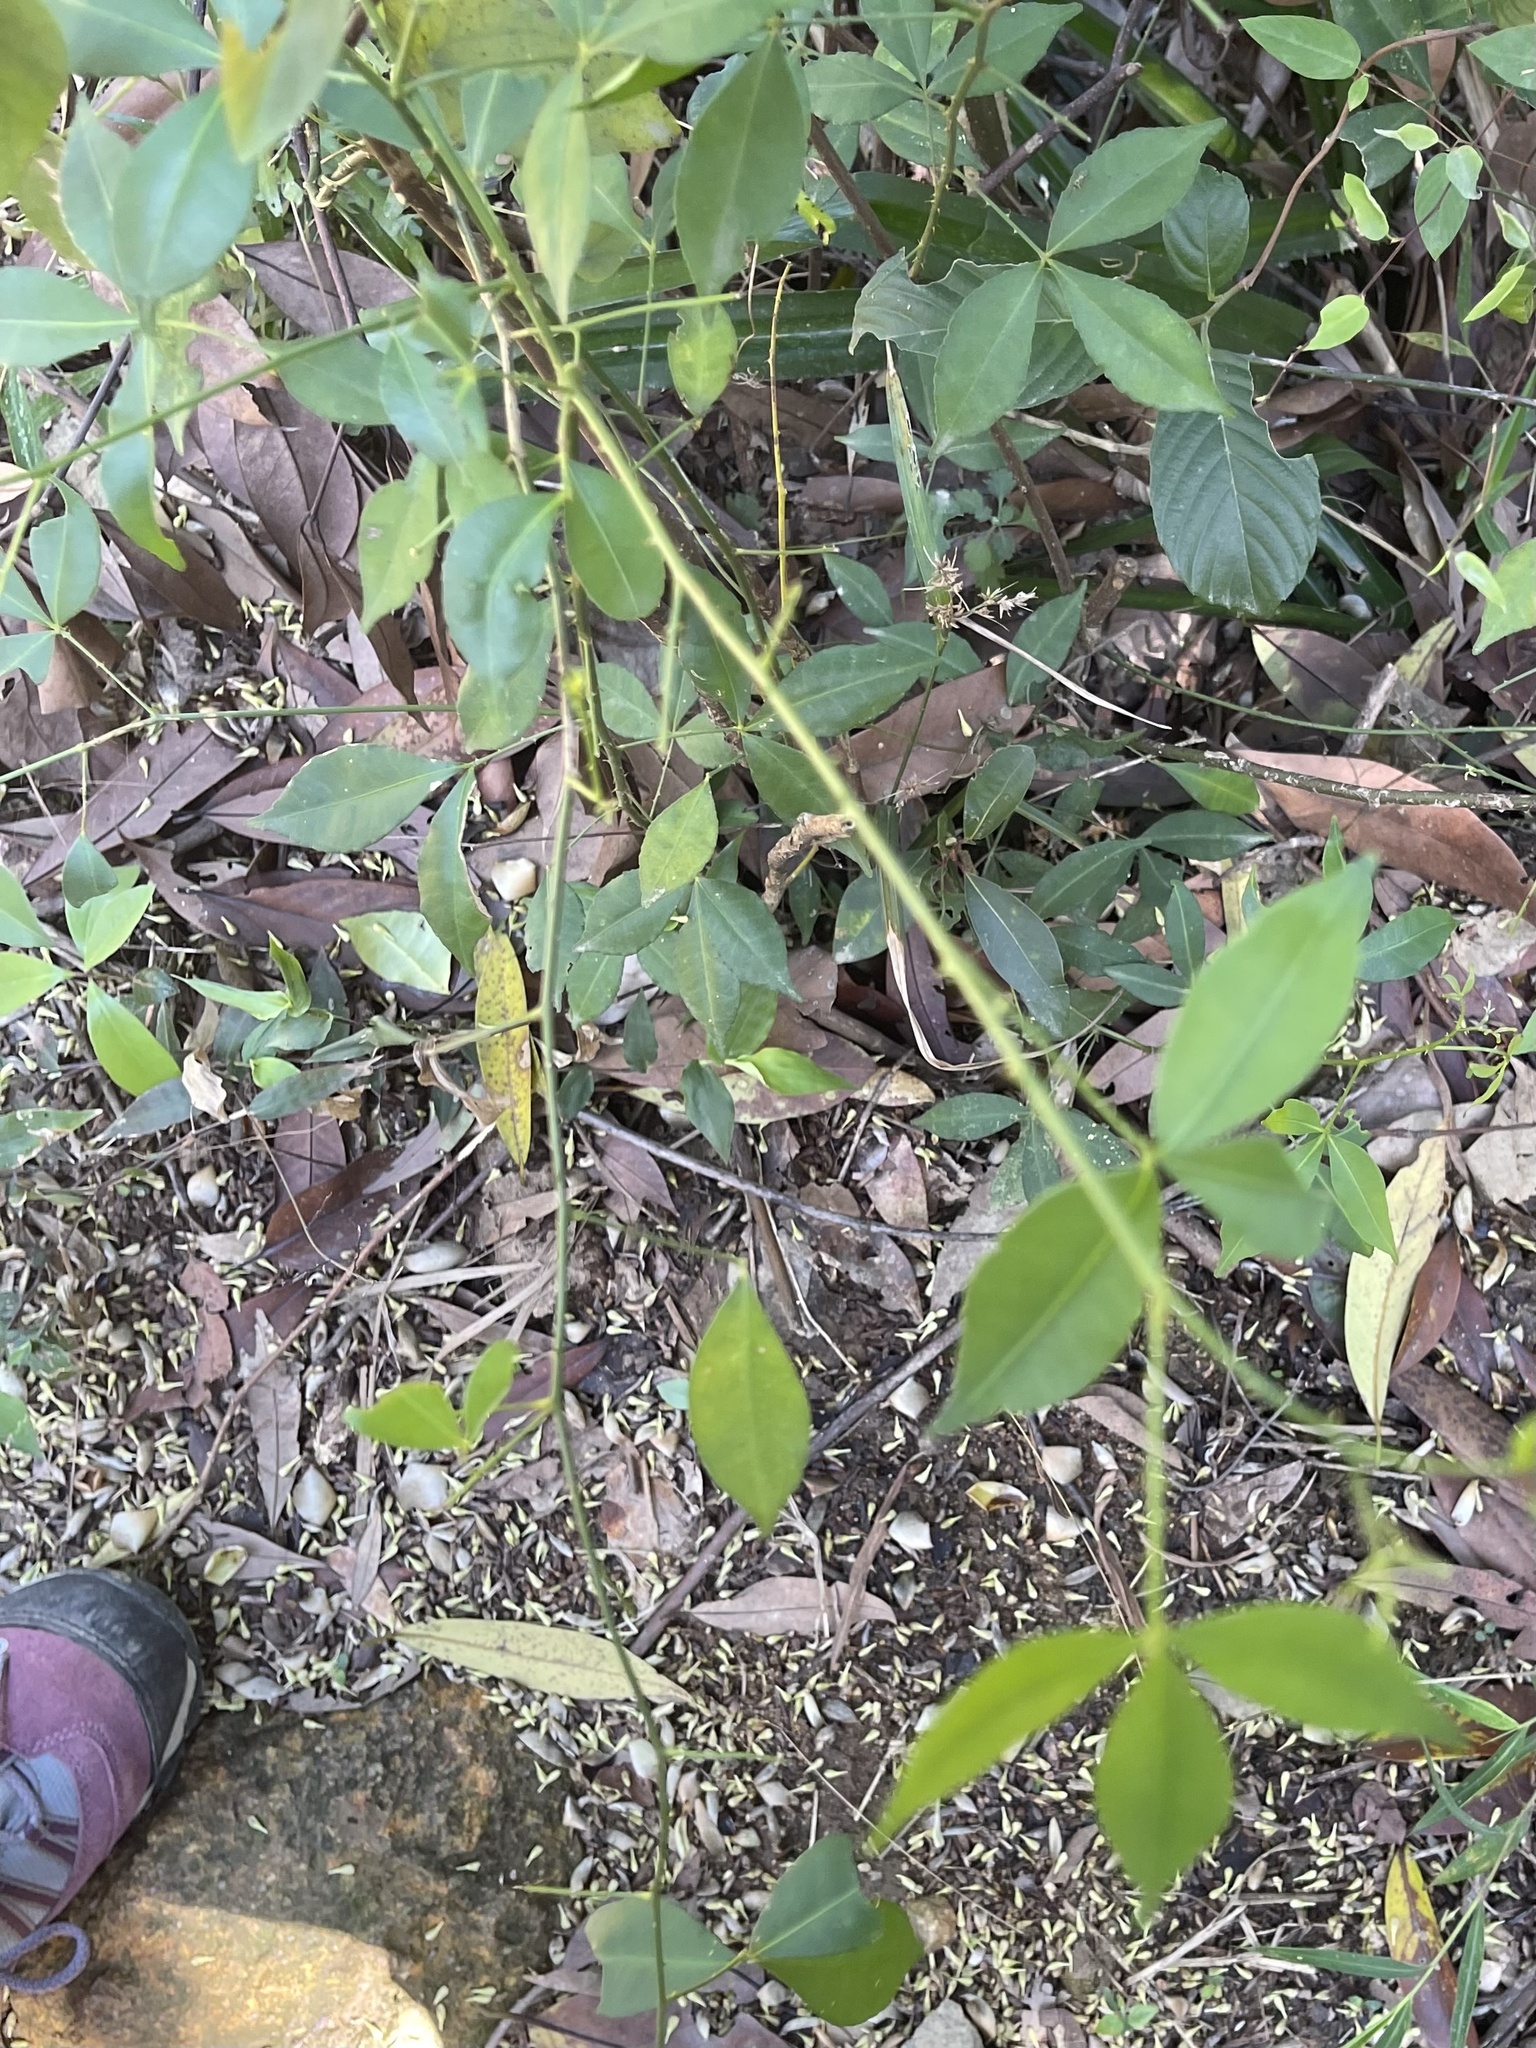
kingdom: Plantae
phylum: Tracheophyta
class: Magnoliopsida
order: Rosales
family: Rosaceae
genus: Rosa
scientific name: Rosa laevigata
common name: Cherokee rose
